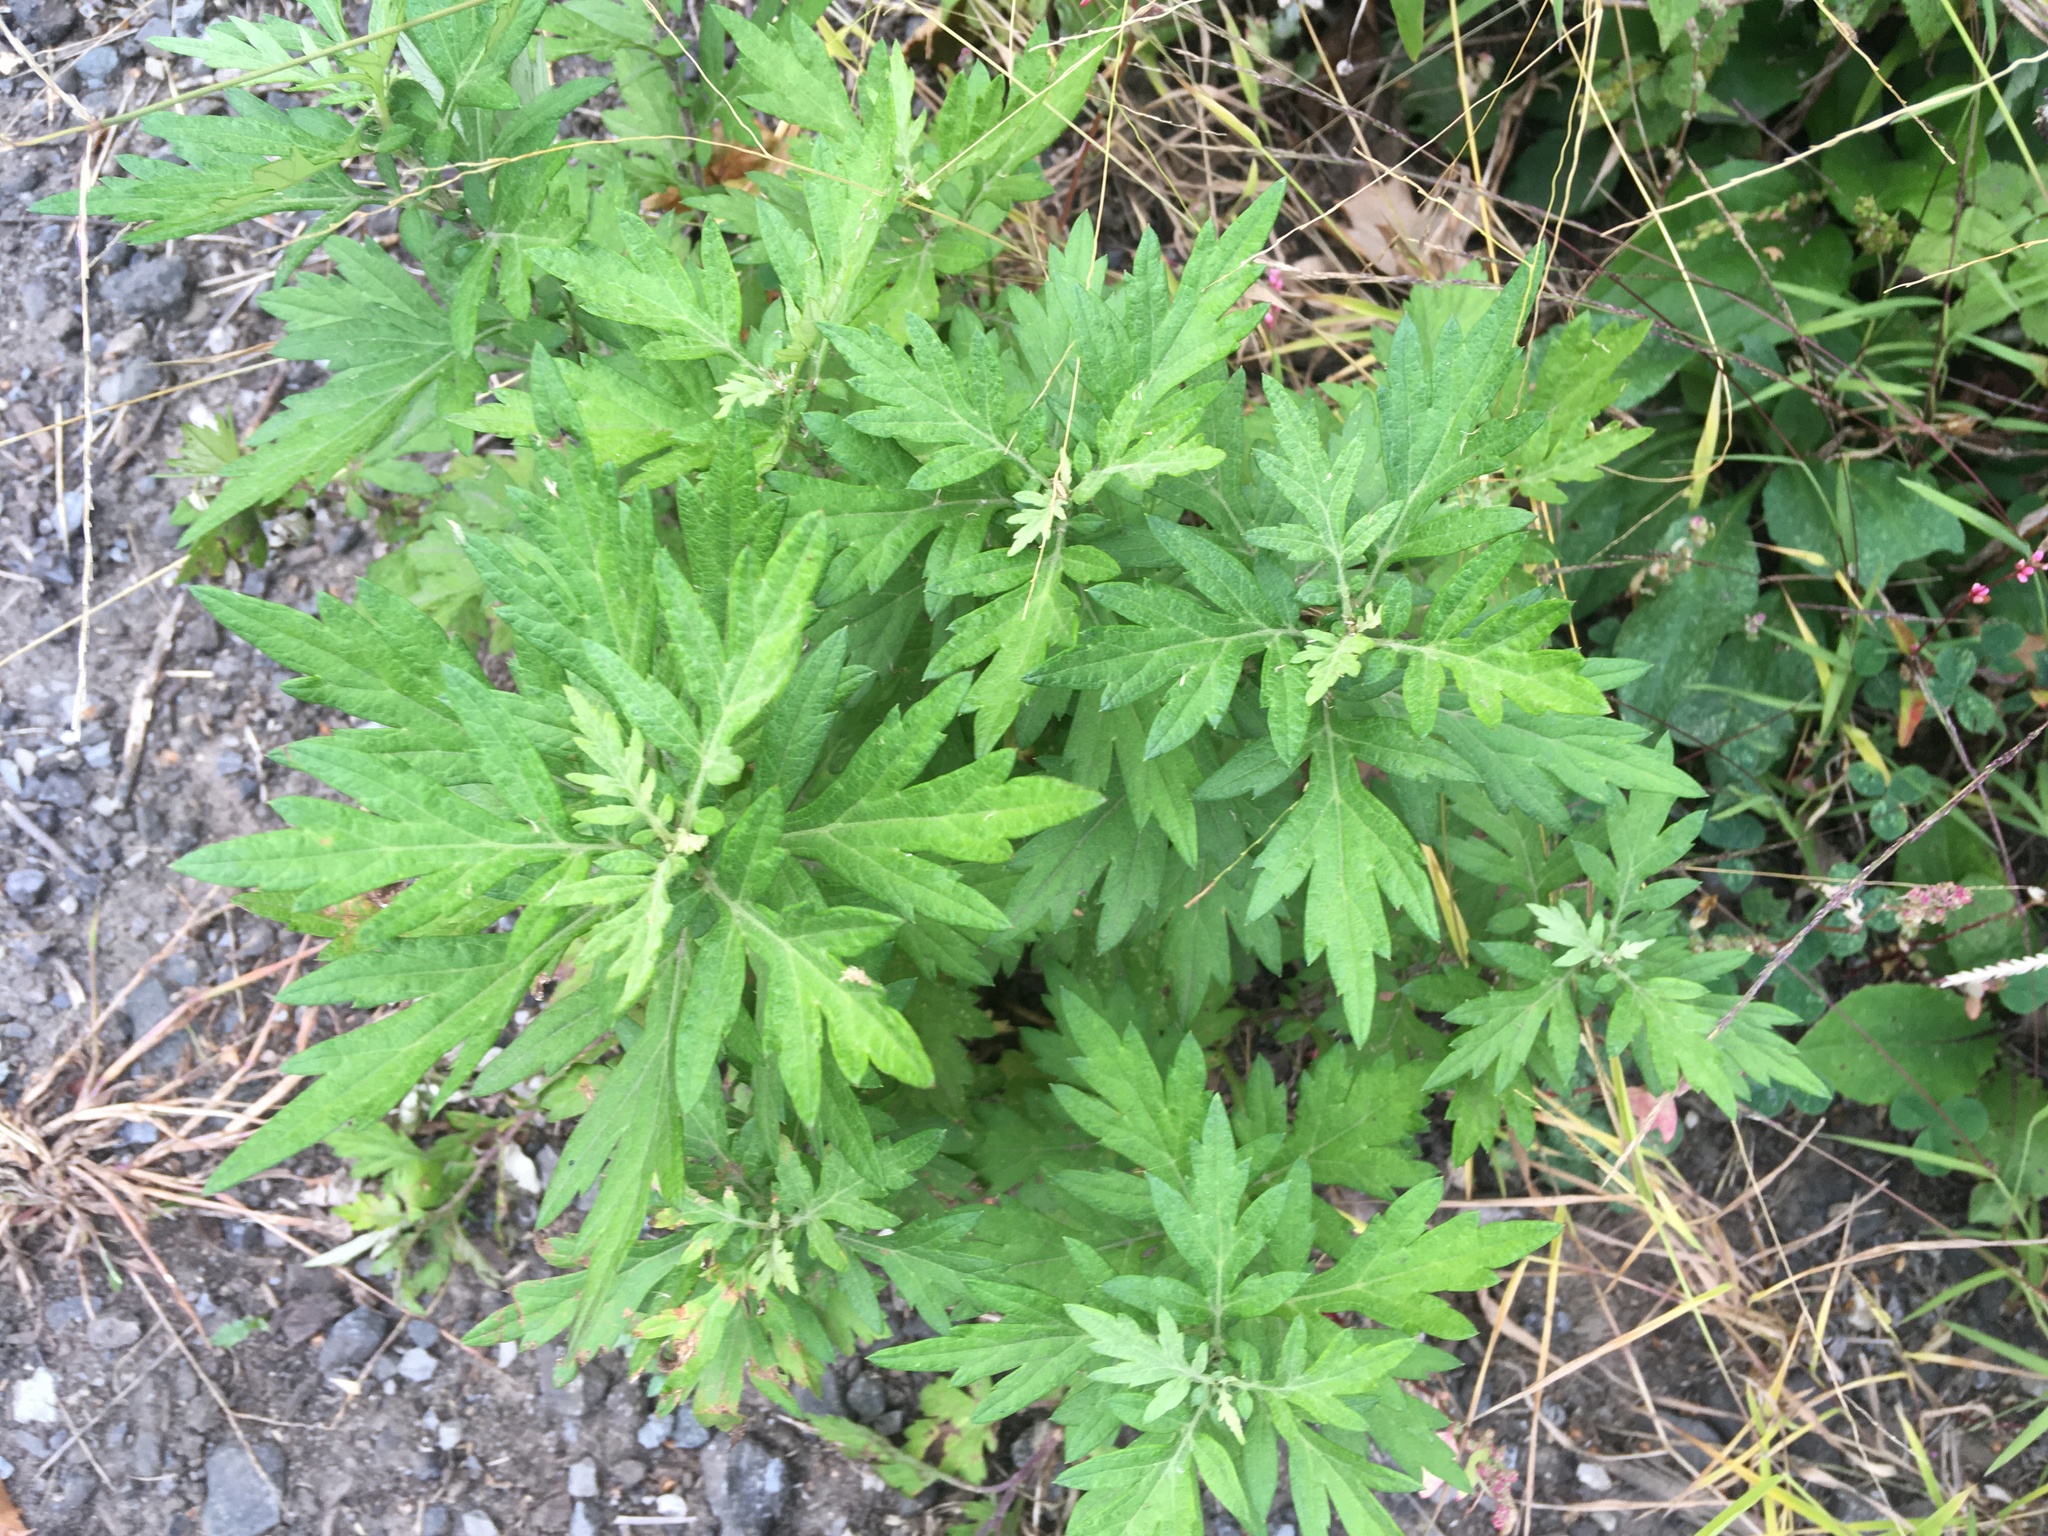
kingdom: Plantae
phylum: Tracheophyta
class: Magnoliopsida
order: Asterales
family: Asteraceae
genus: Artemisia
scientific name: Artemisia vulgaris
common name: Mugwort
